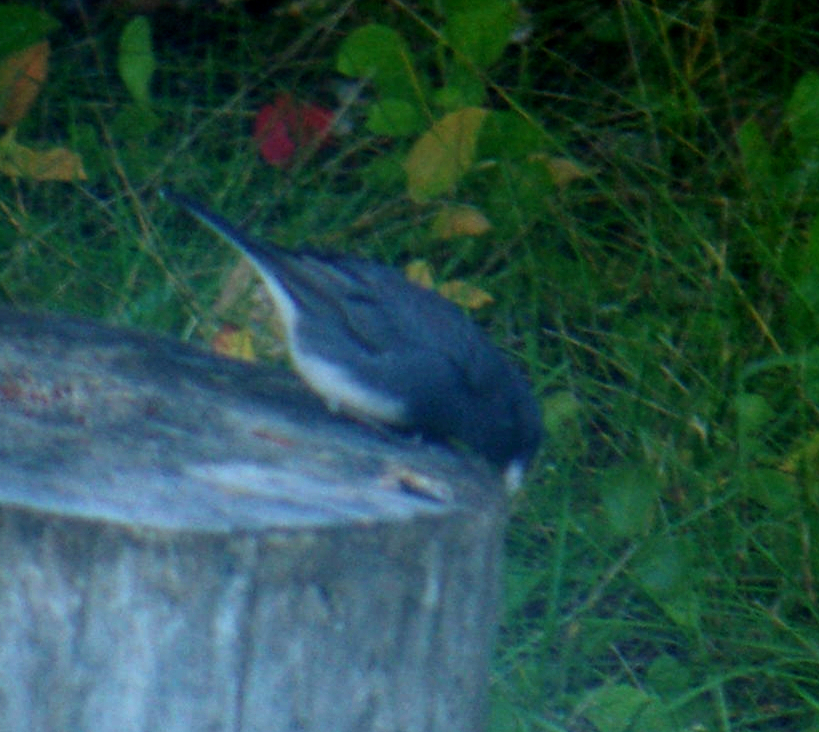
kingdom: Animalia
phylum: Chordata
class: Aves
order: Passeriformes
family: Passerellidae
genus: Junco
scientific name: Junco hyemalis
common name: Dark-eyed junco
